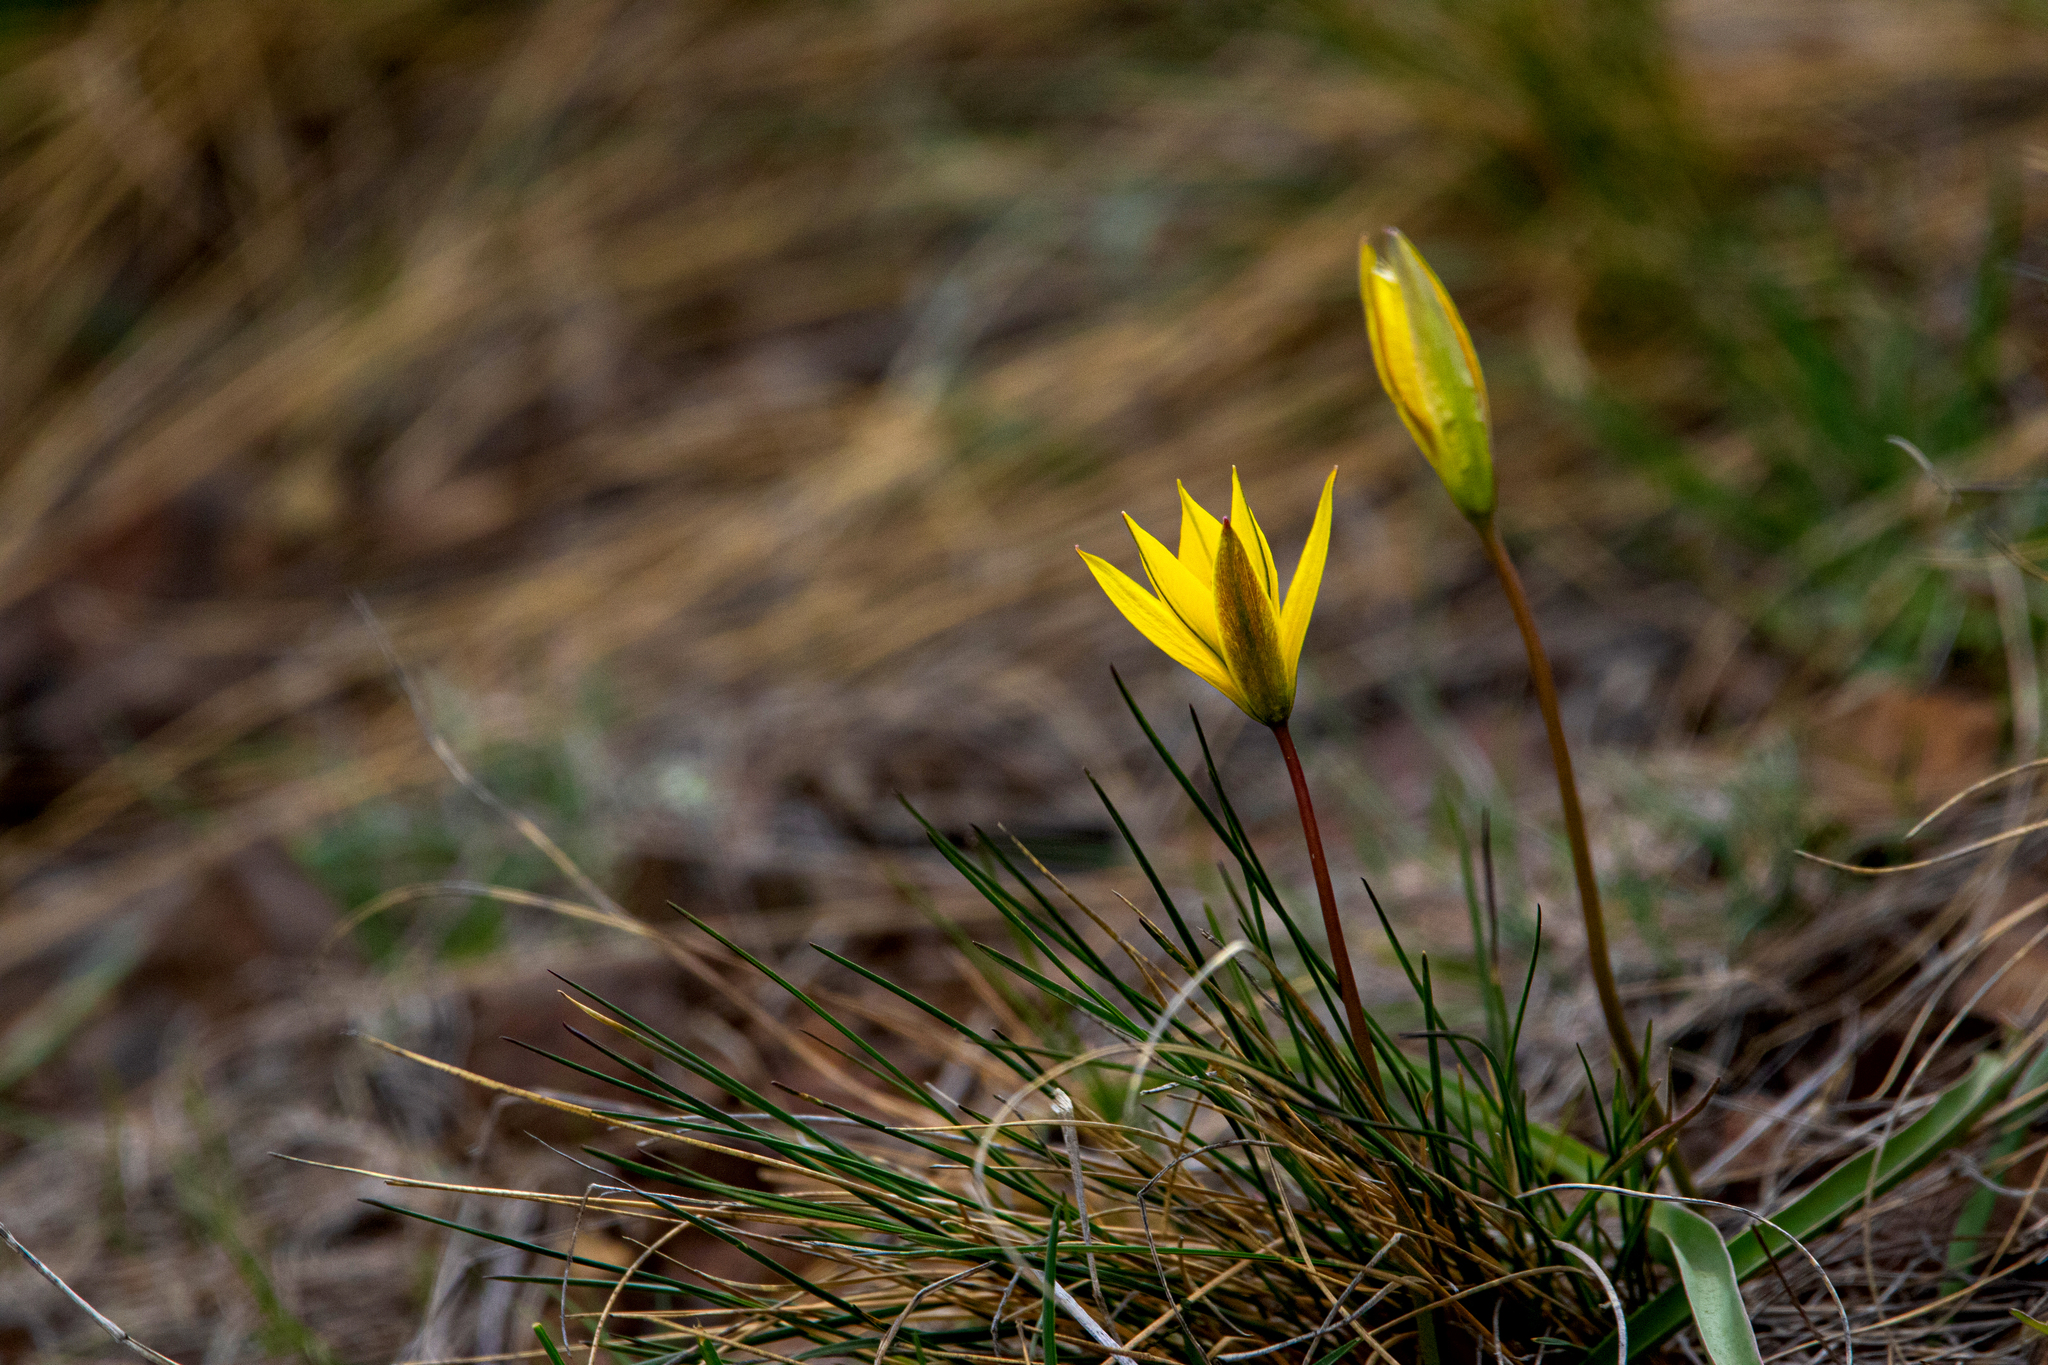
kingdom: Plantae
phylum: Tracheophyta
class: Liliopsida
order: Liliales
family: Liliaceae
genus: Tulipa
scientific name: Tulipa uniflora
